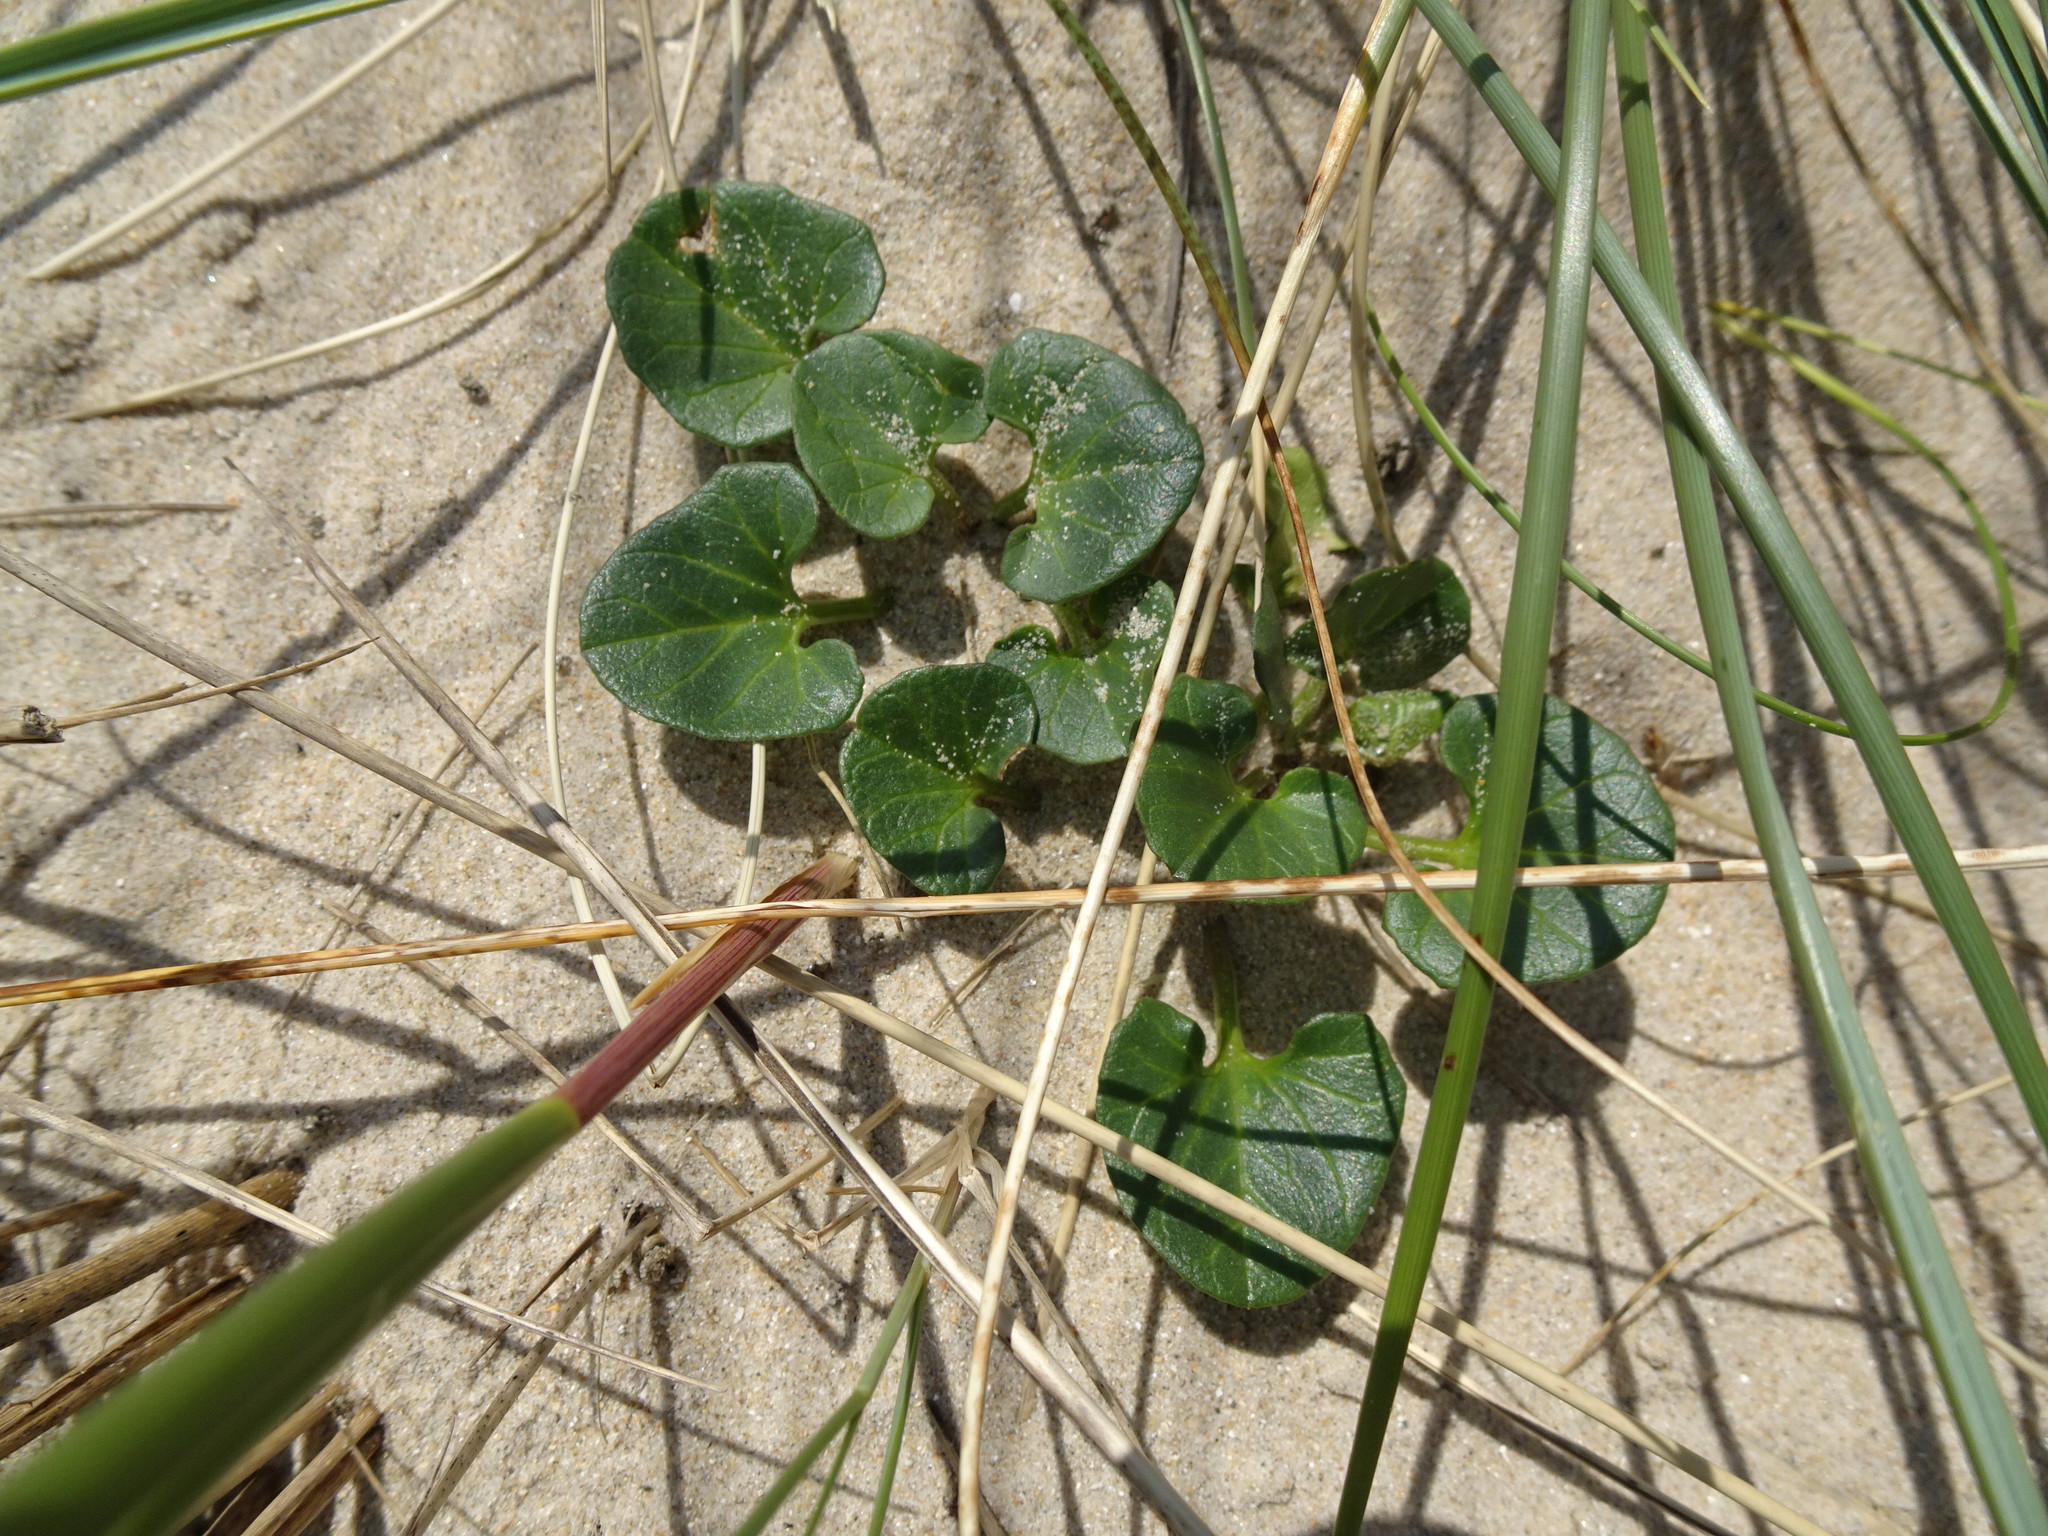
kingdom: Plantae
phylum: Tracheophyta
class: Magnoliopsida
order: Solanales
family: Convolvulaceae
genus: Calystegia
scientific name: Calystegia soldanella
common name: Sea bindweed
